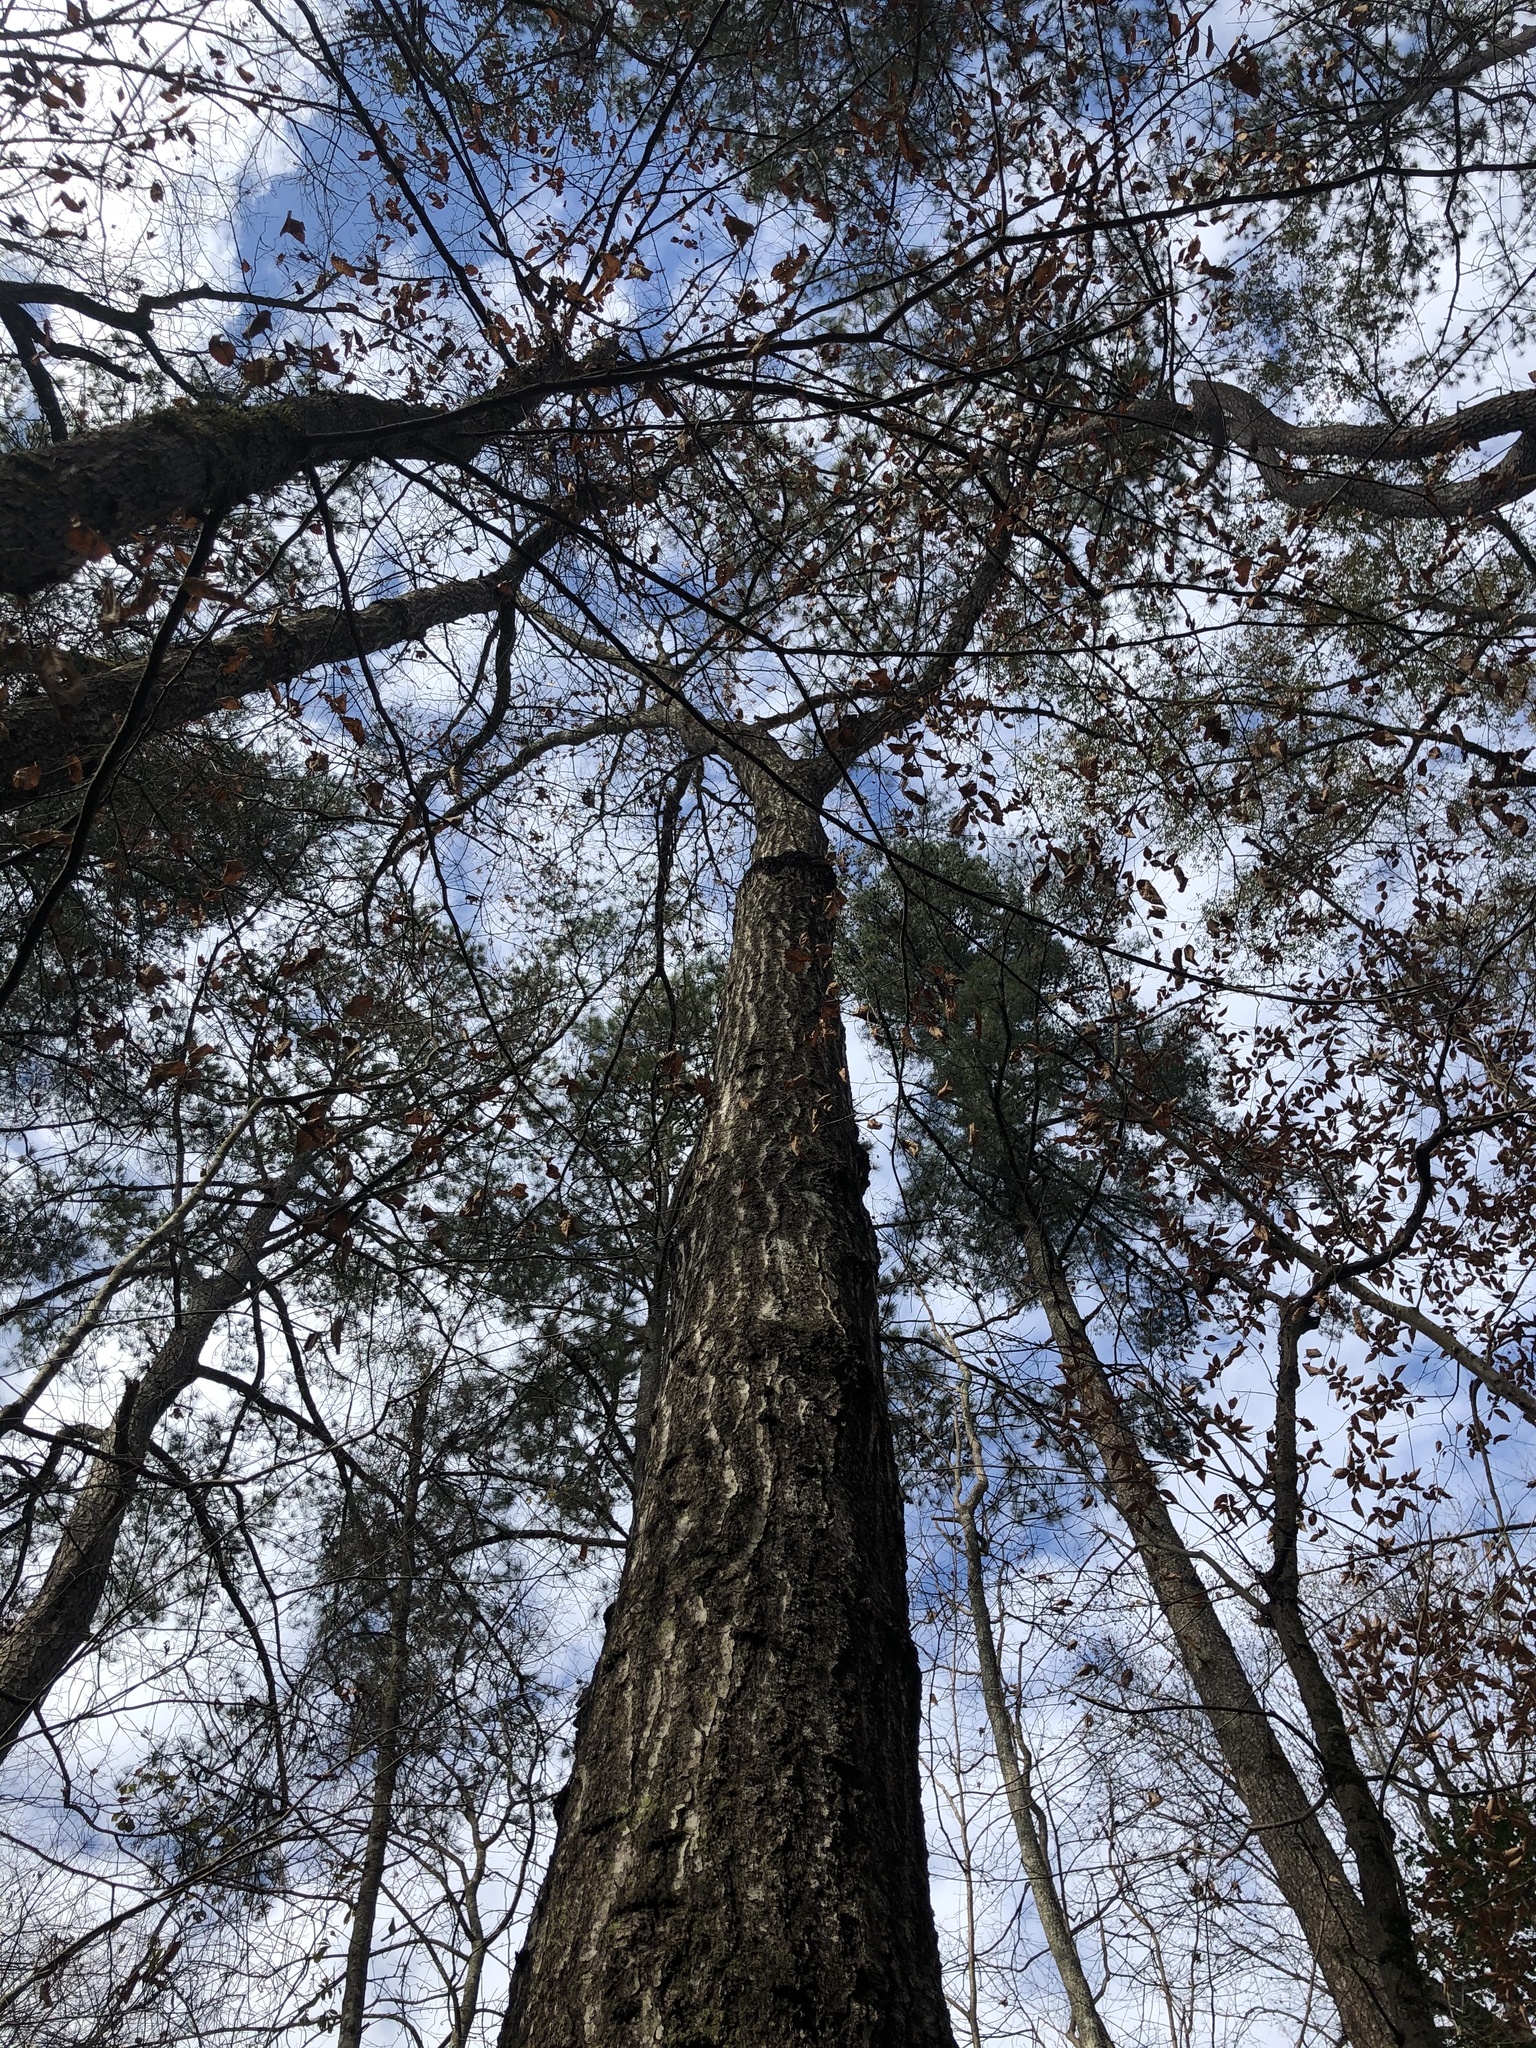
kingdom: Plantae
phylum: Tracheophyta
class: Magnoliopsida
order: Fagales
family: Fagaceae
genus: Quercus
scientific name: Quercus coccinea
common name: Scarlet oak
